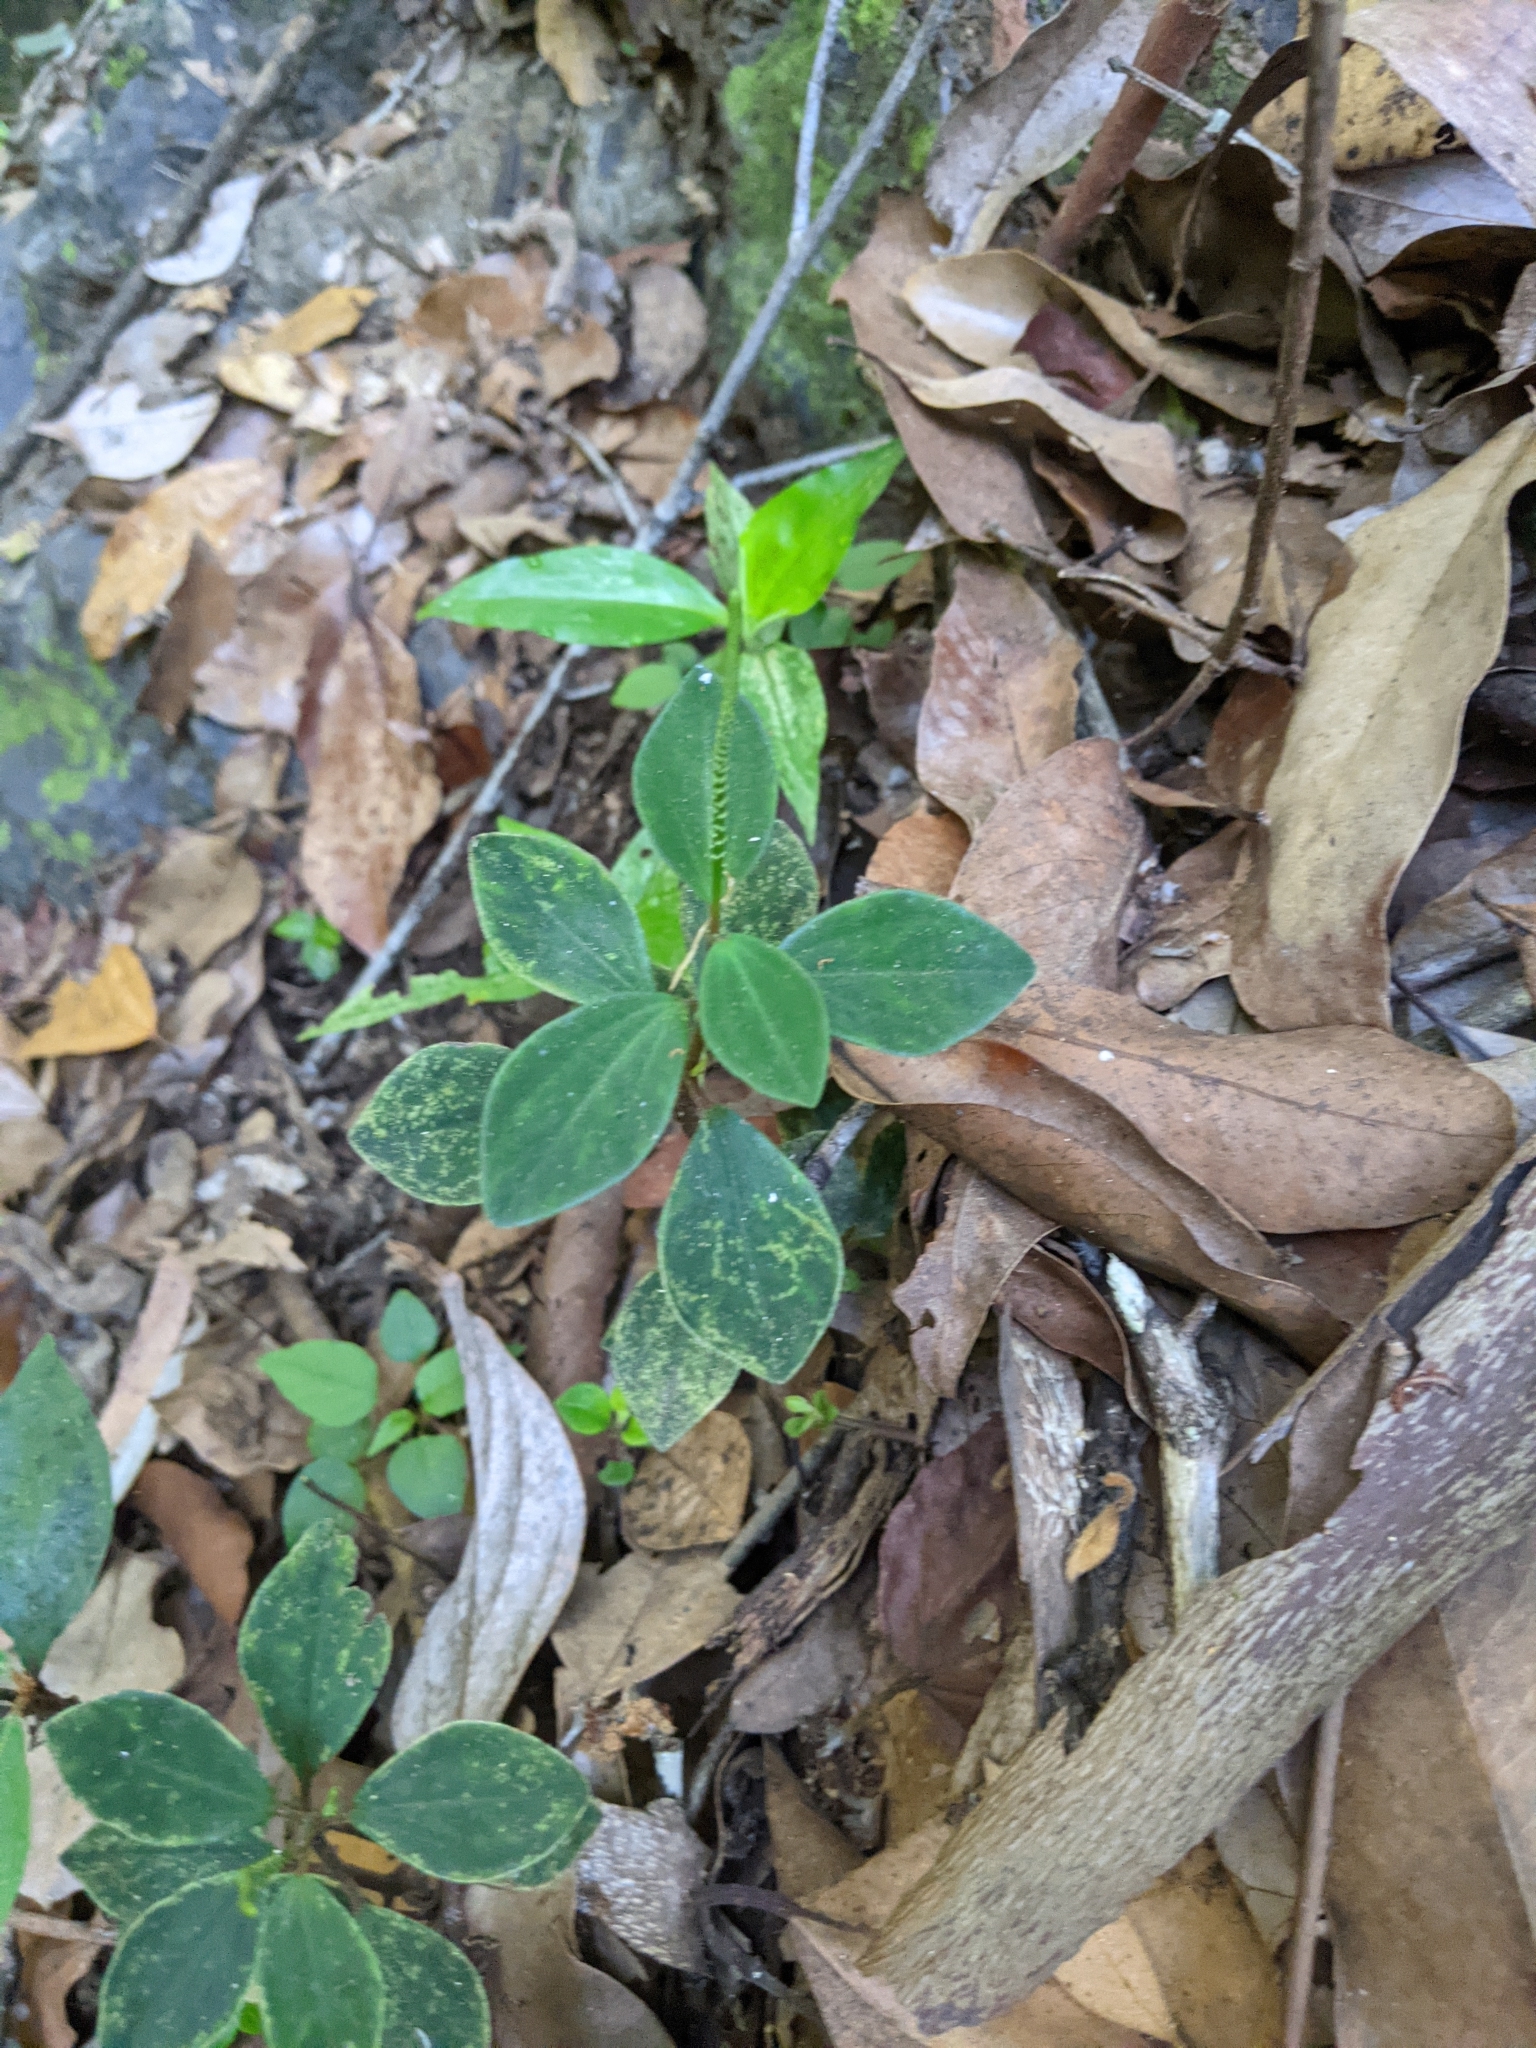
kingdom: Plantae
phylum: Tracheophyta
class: Magnoliopsida
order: Piperales
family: Piperaceae
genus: Peperomia
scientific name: Peperomia leptostachya
